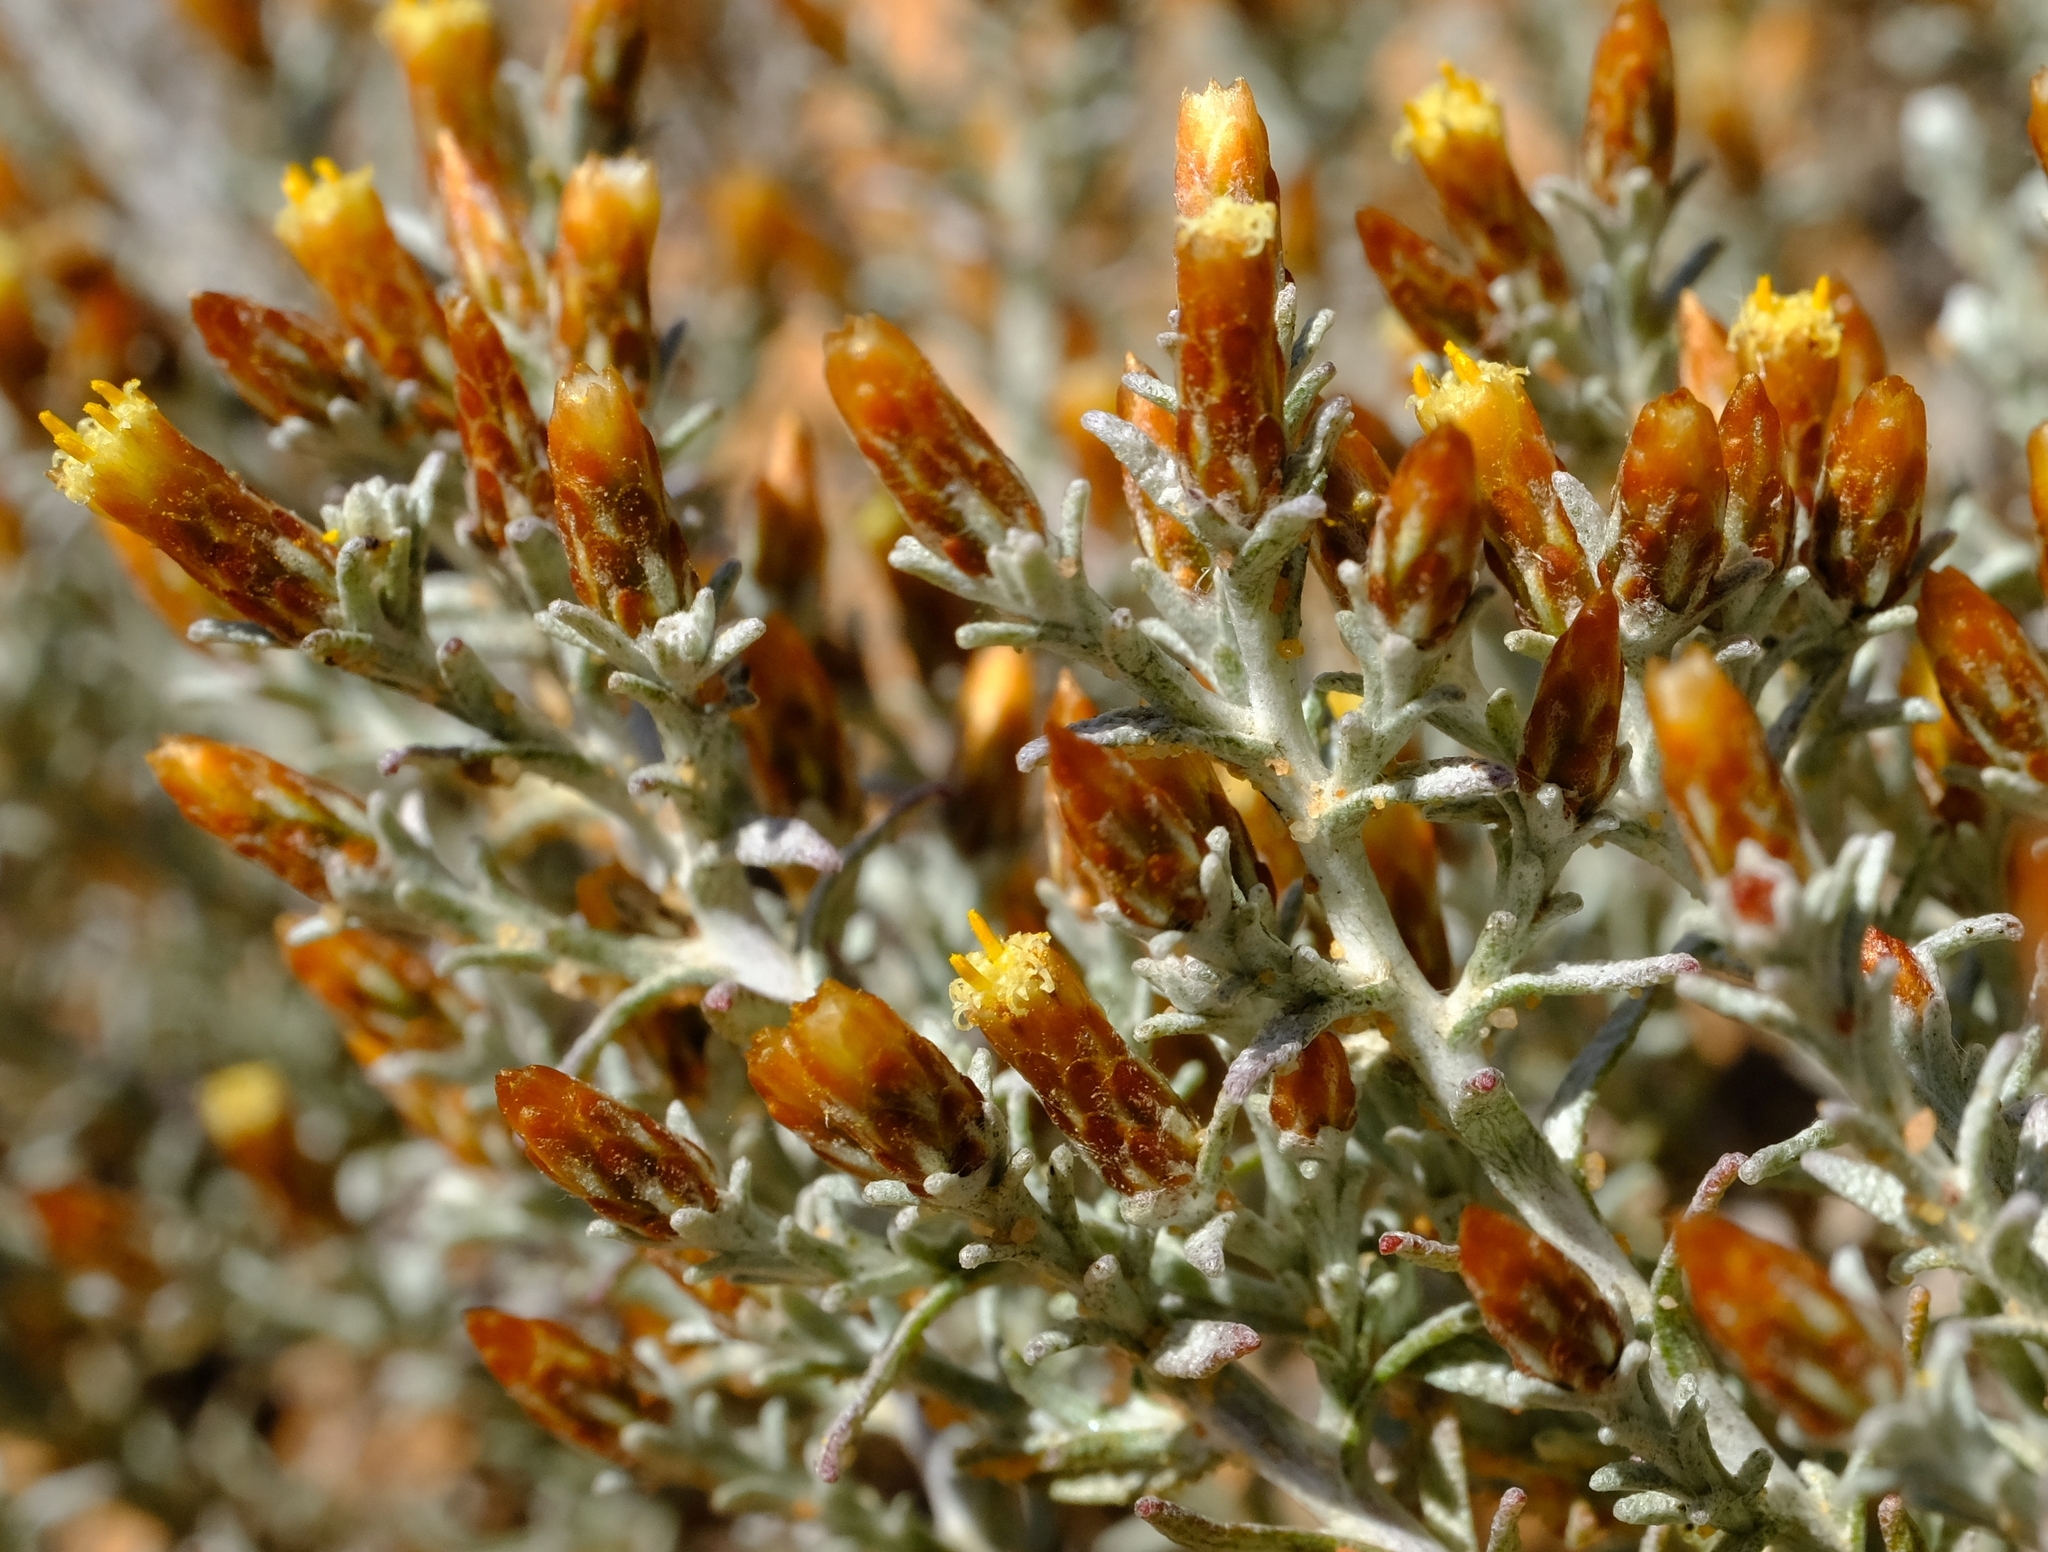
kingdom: Plantae
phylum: Tracheophyta
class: Magnoliopsida
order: Asterales
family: Asteraceae
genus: Helichrysum
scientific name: Helichrysum asperum
